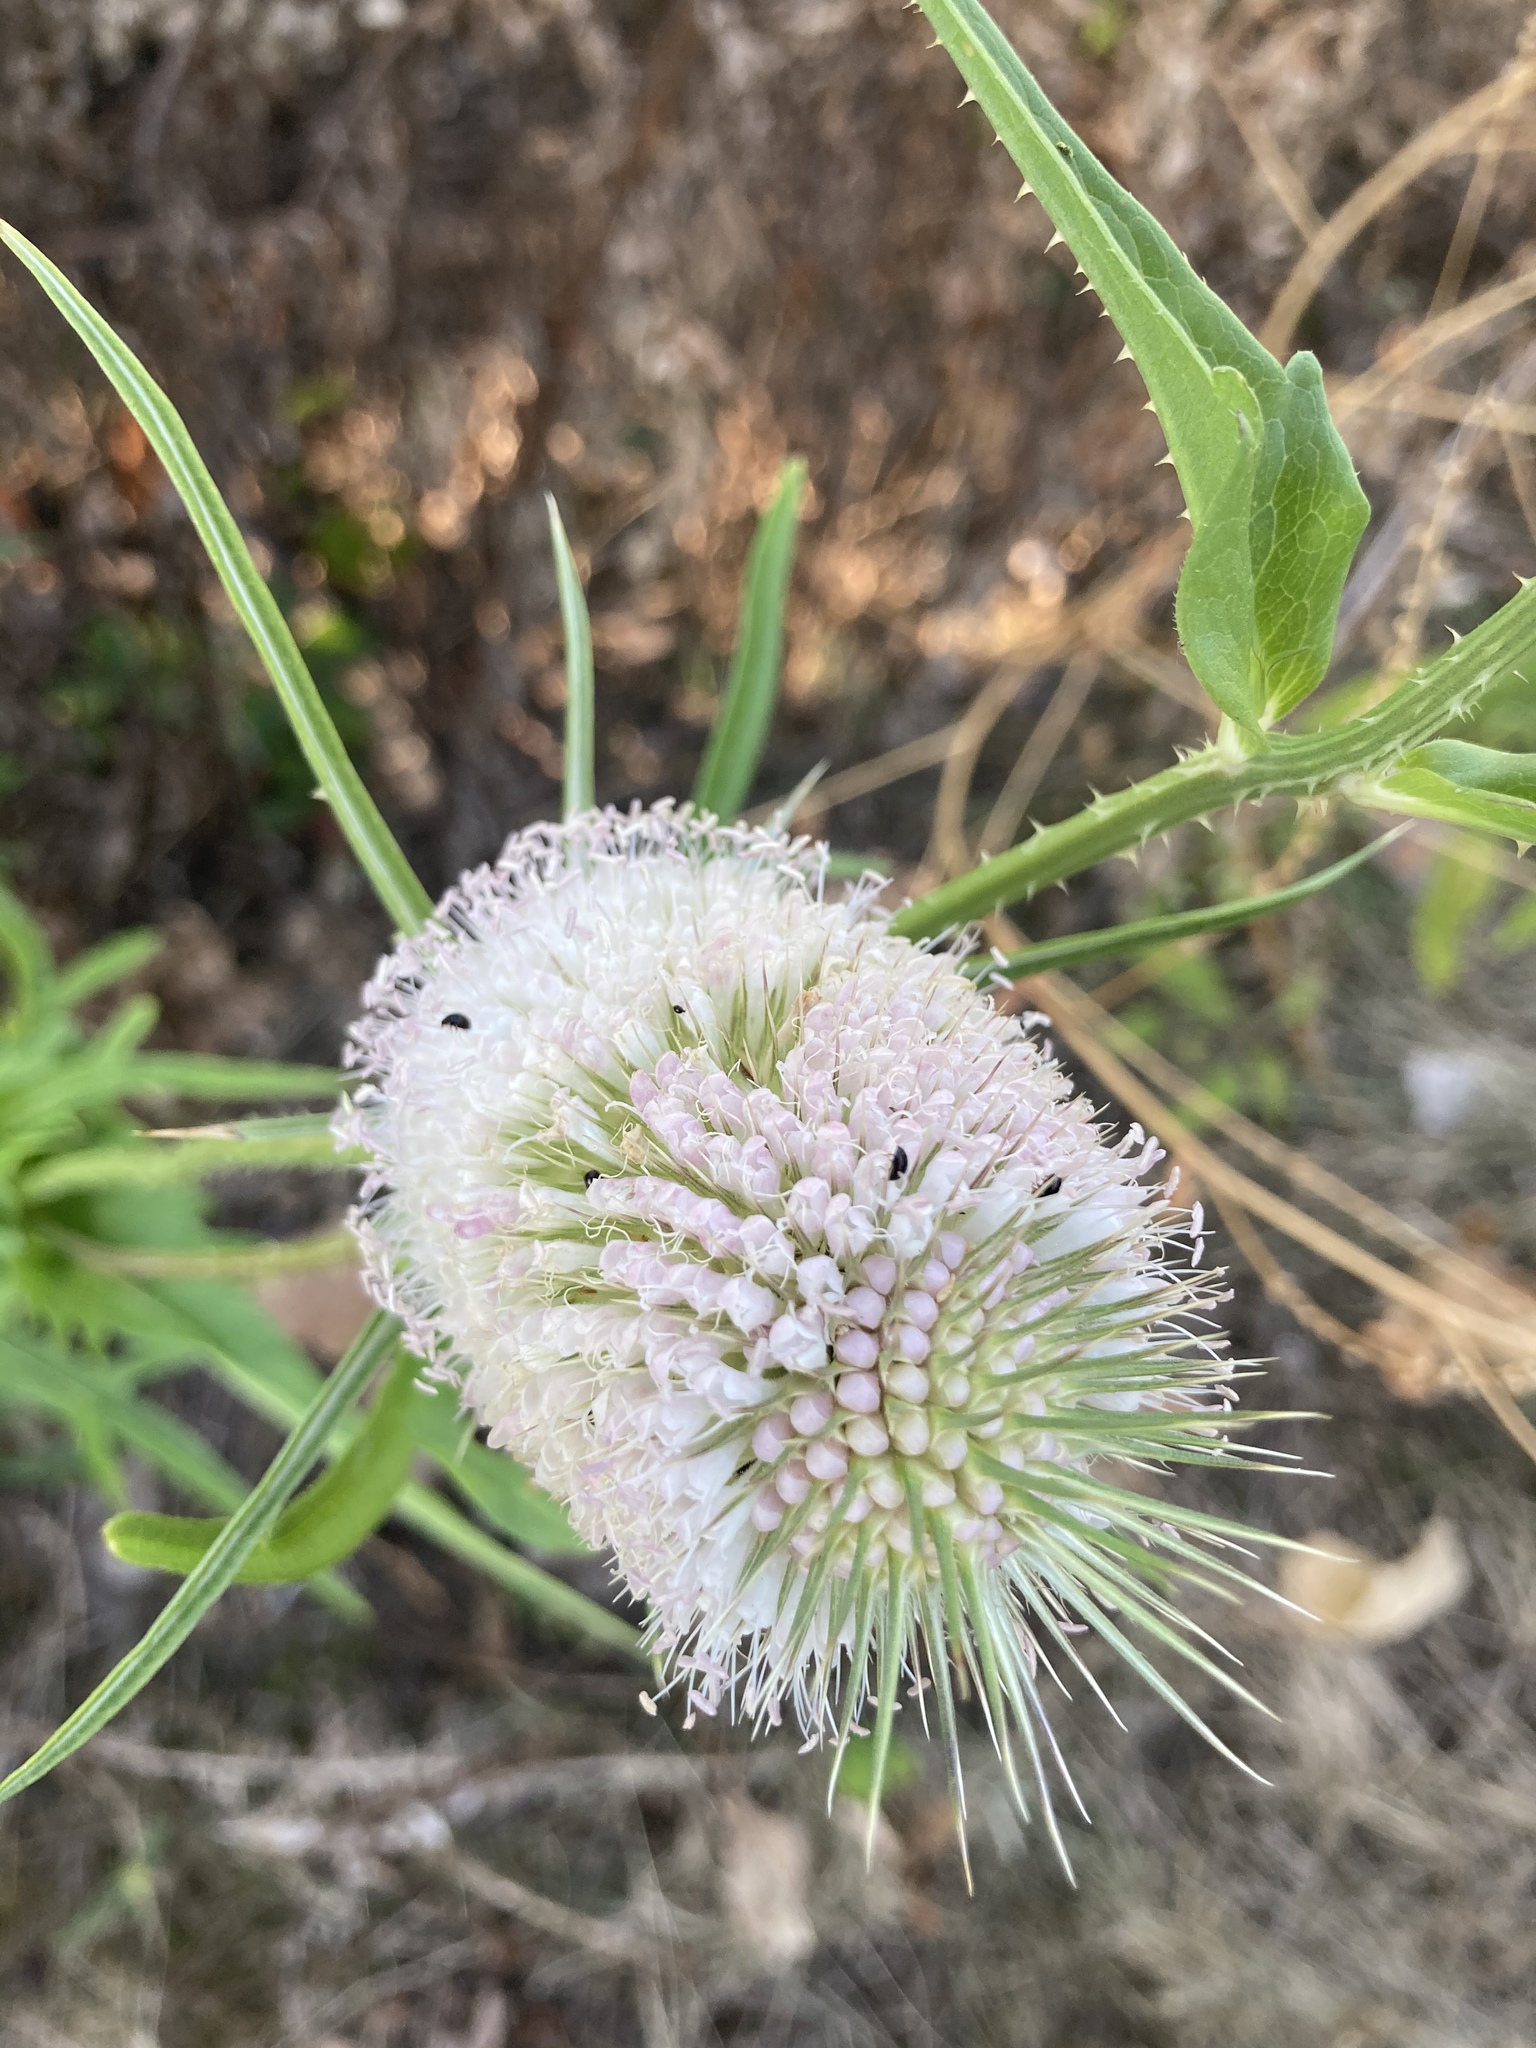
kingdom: Plantae
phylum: Tracheophyta
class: Magnoliopsida
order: Dipsacales
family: Caprifoliaceae
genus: Dipsacus
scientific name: Dipsacus laciniatus
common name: Cut-leaved teasel
